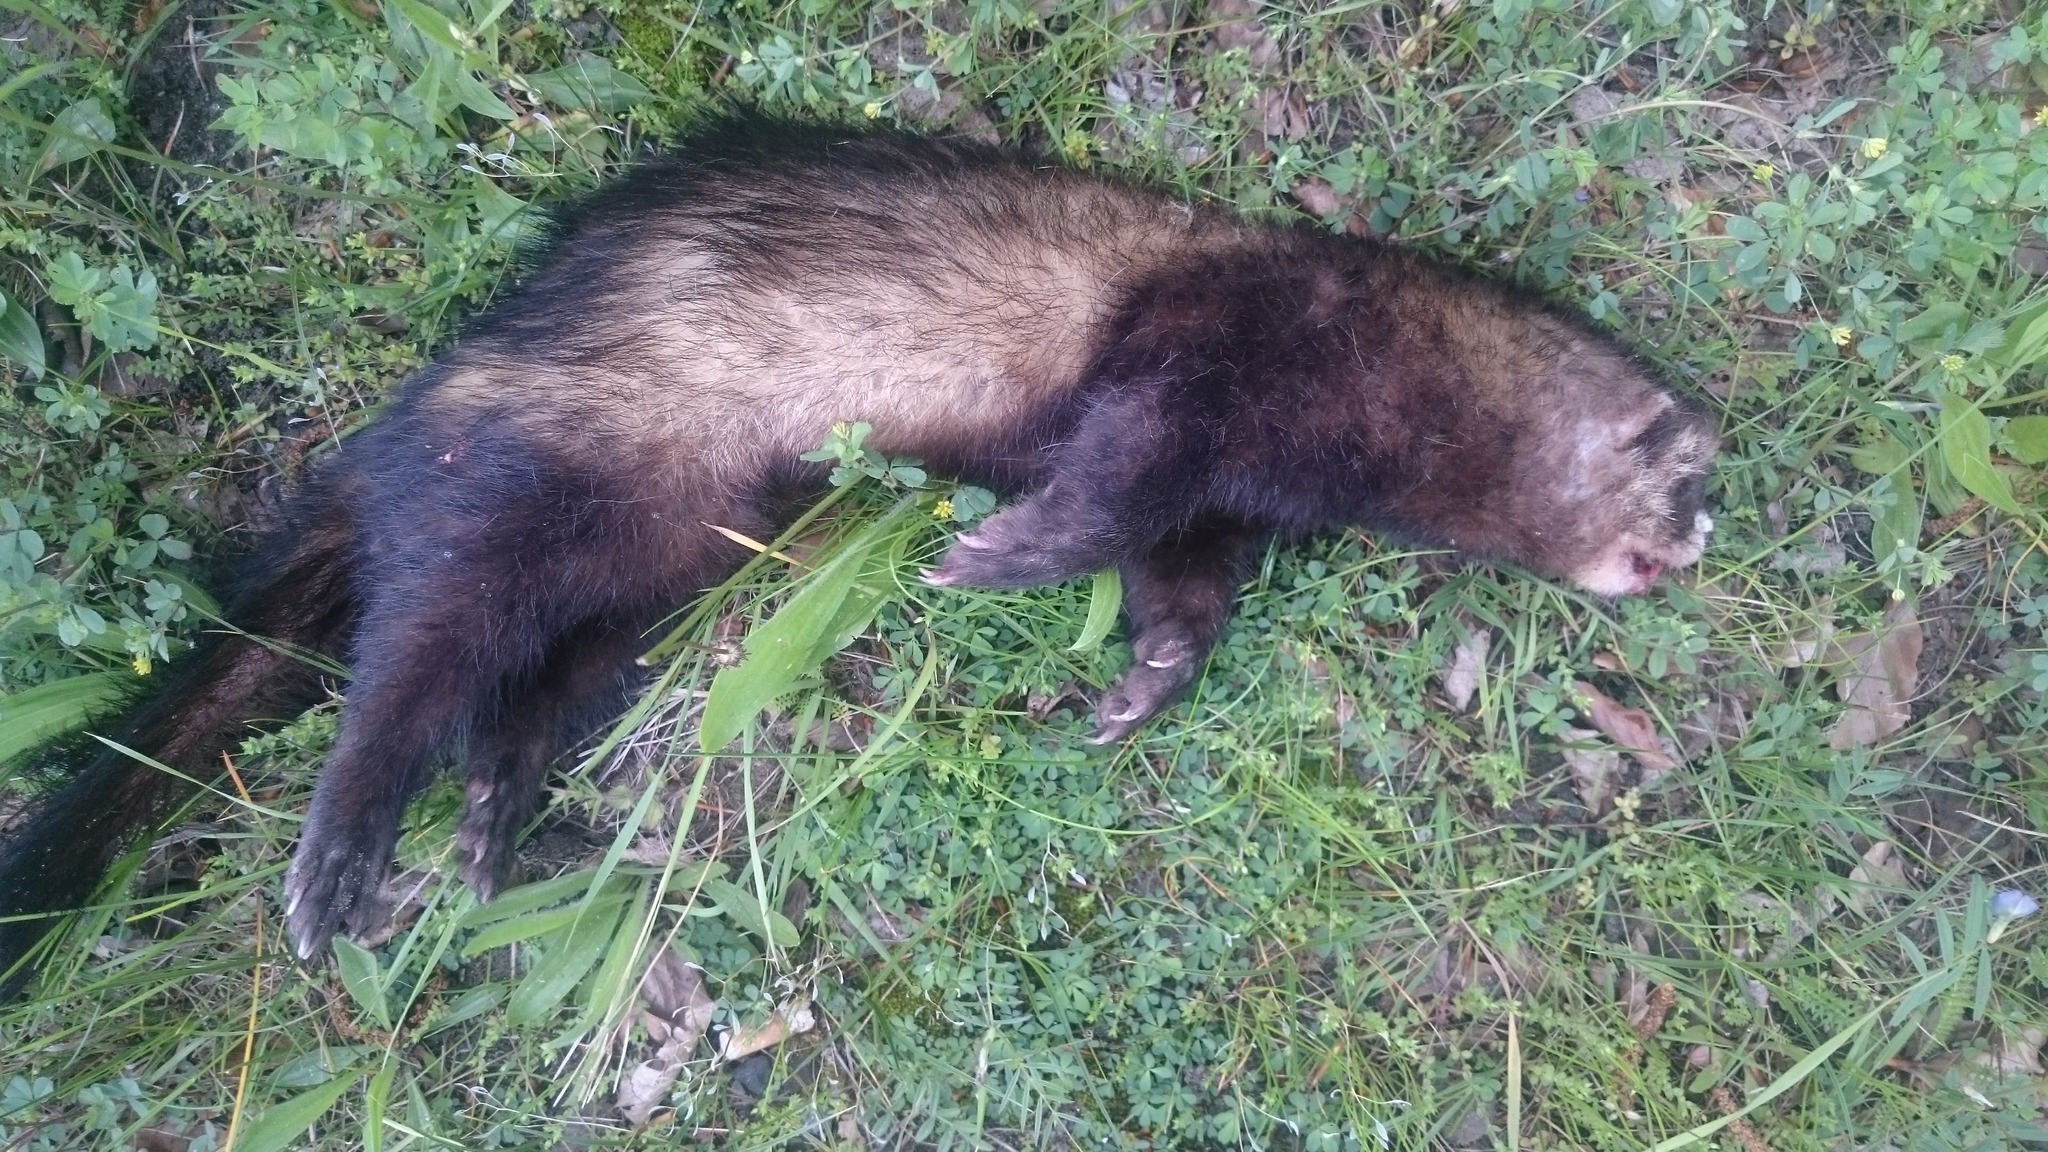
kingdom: Animalia
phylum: Chordata
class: Mammalia
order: Carnivora
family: Mustelidae
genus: Mustela
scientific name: Mustela putorius
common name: European polecat
